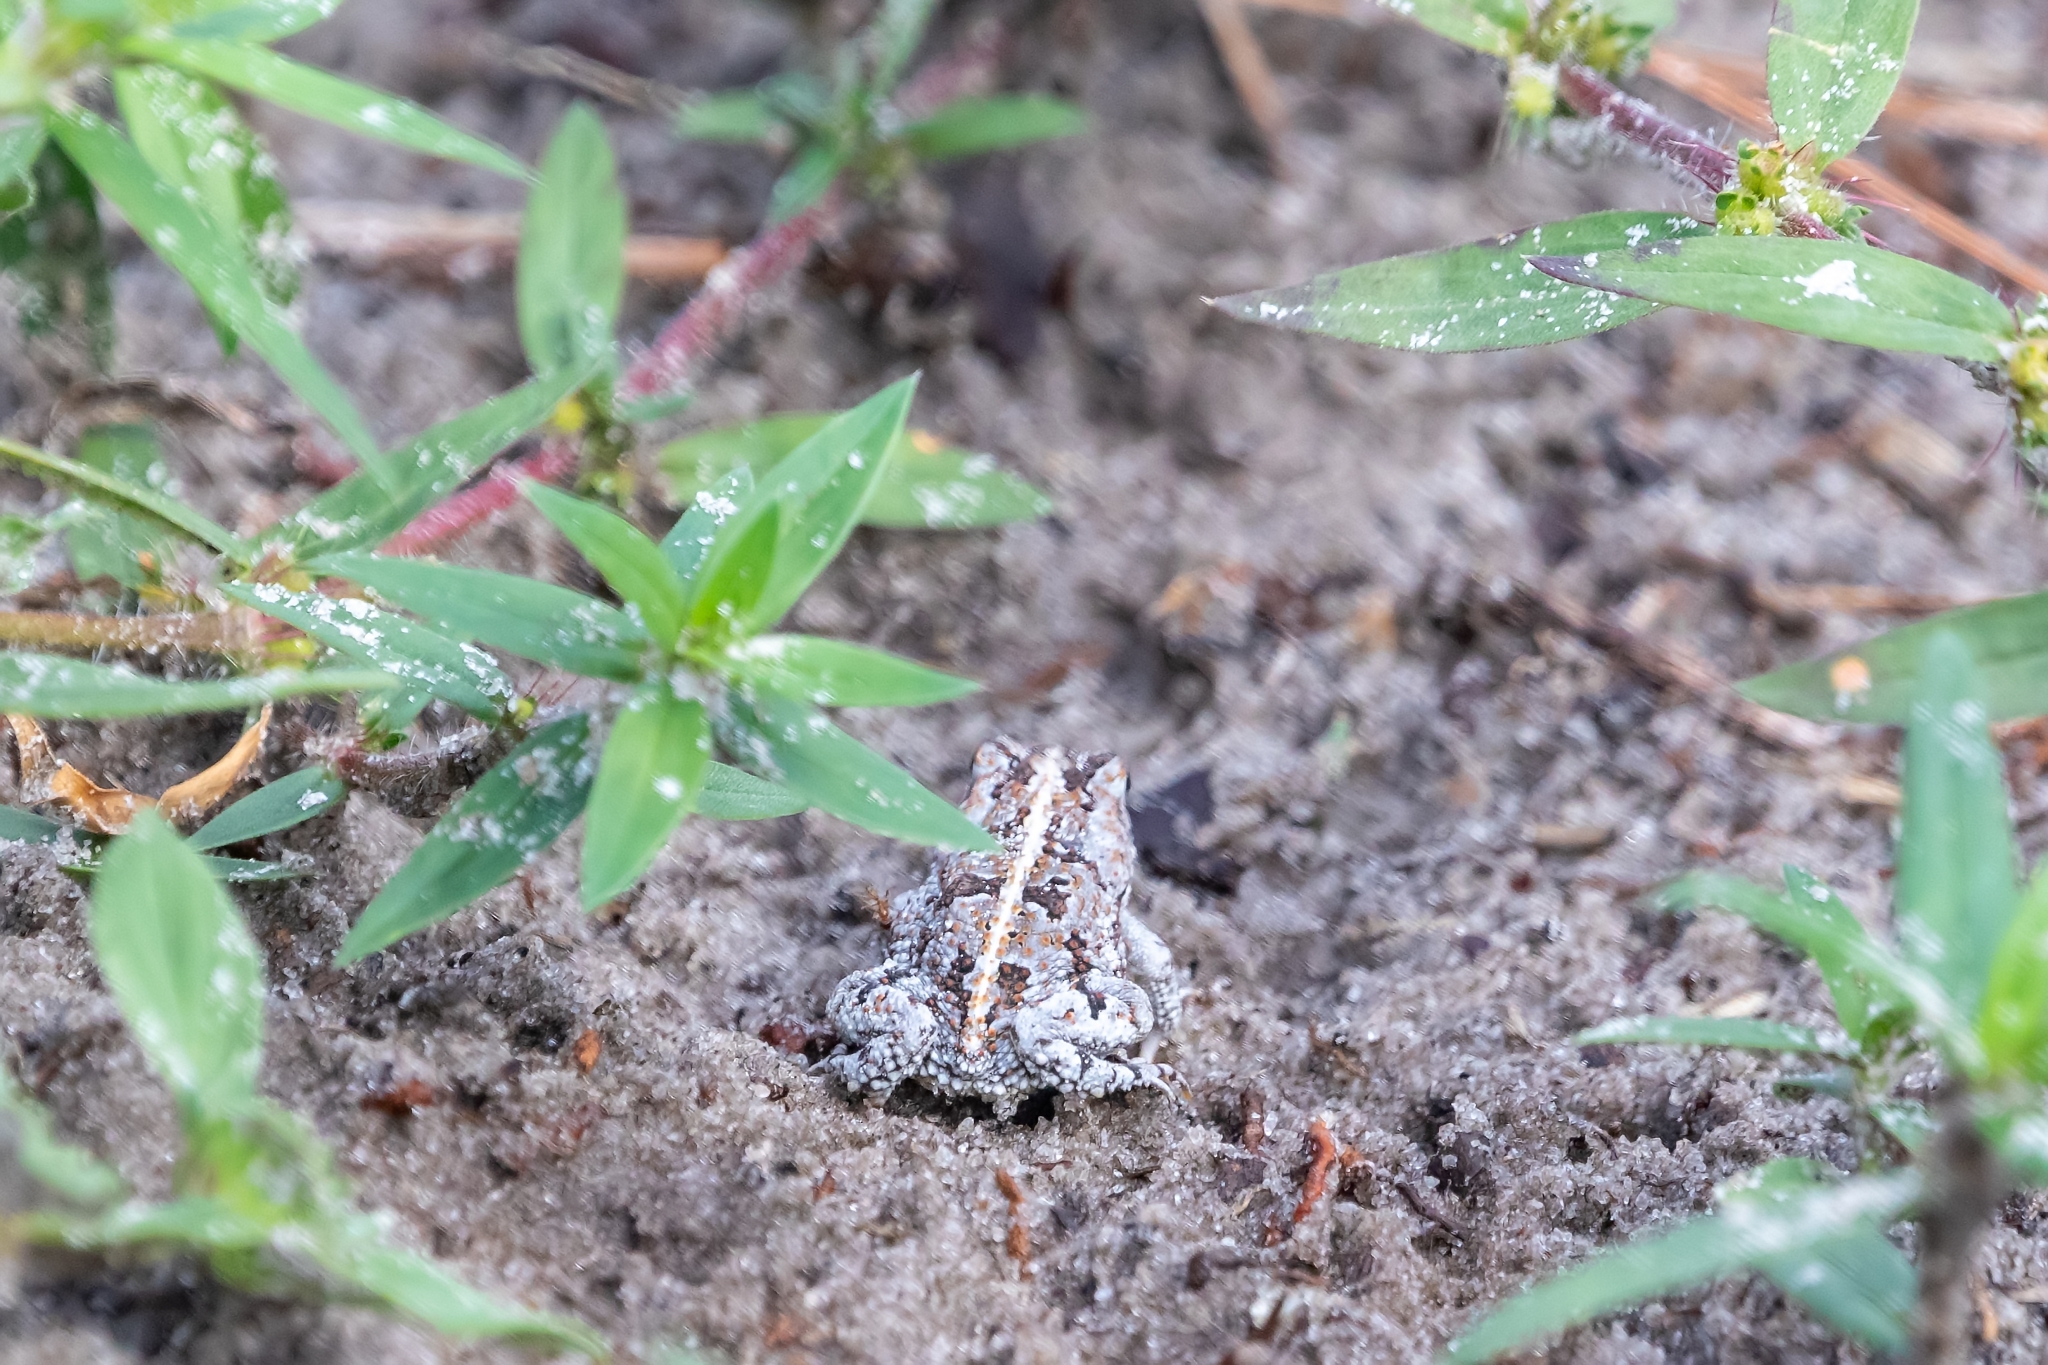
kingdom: Animalia
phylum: Chordata
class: Amphibia
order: Anura
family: Bufonidae
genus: Anaxyrus
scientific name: Anaxyrus quercicus
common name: Oak toad
